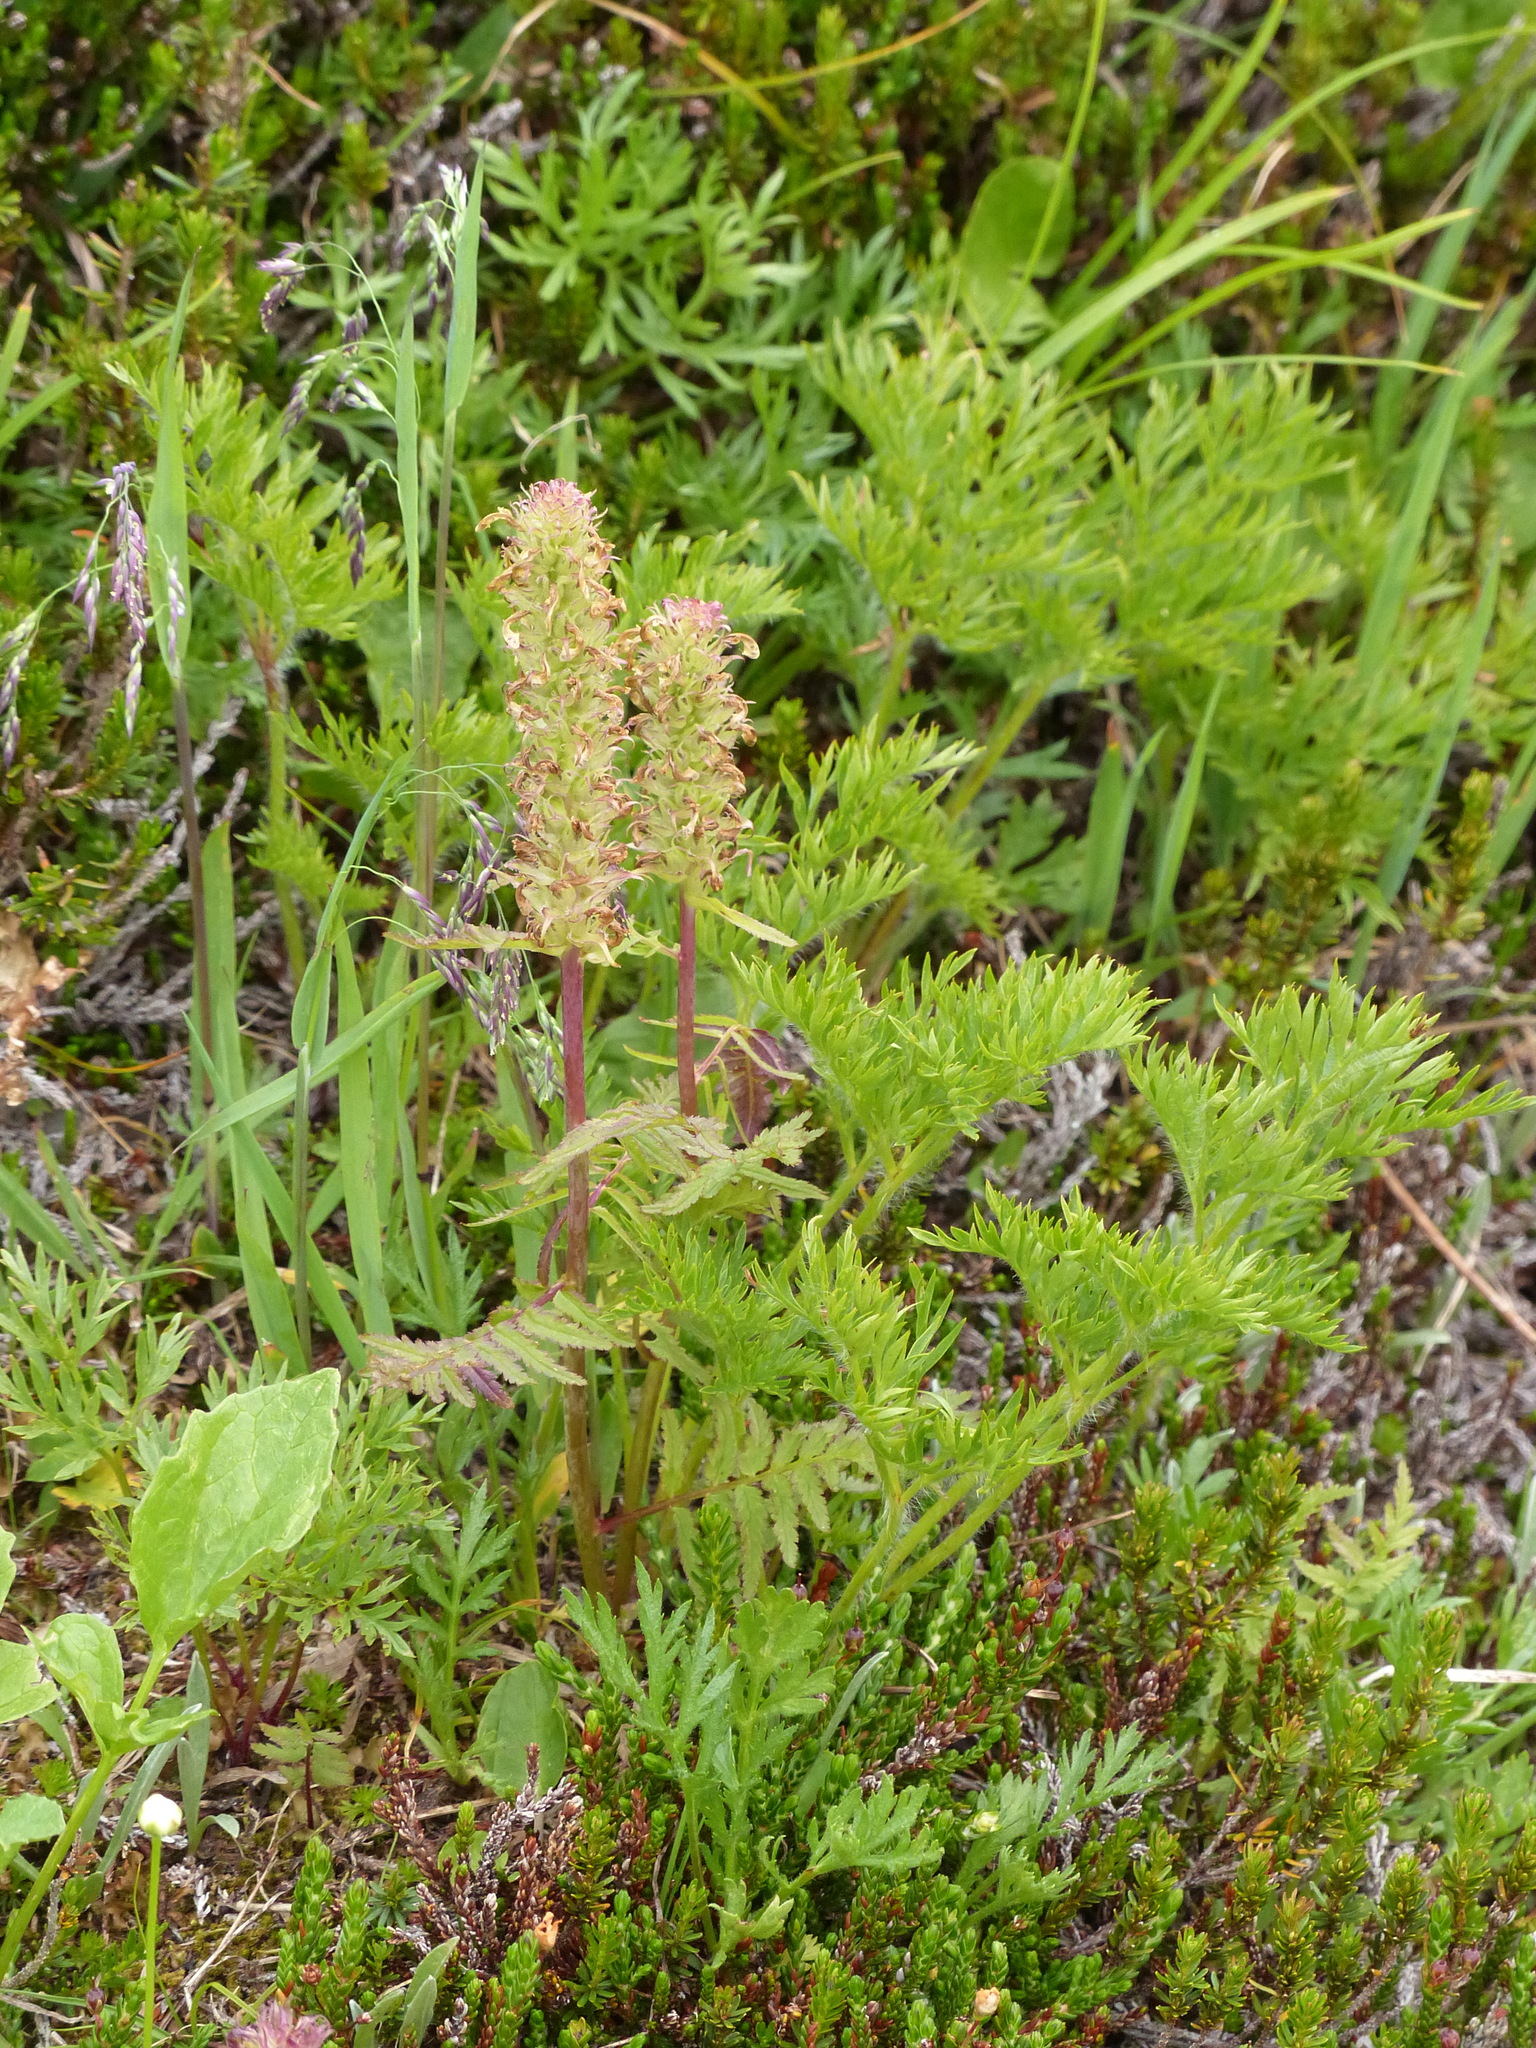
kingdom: Plantae
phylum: Tracheophyta
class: Magnoliopsida
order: Lamiales
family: Orobanchaceae
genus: Pedicularis
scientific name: Pedicularis bracteosa
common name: Bracted lousewort
